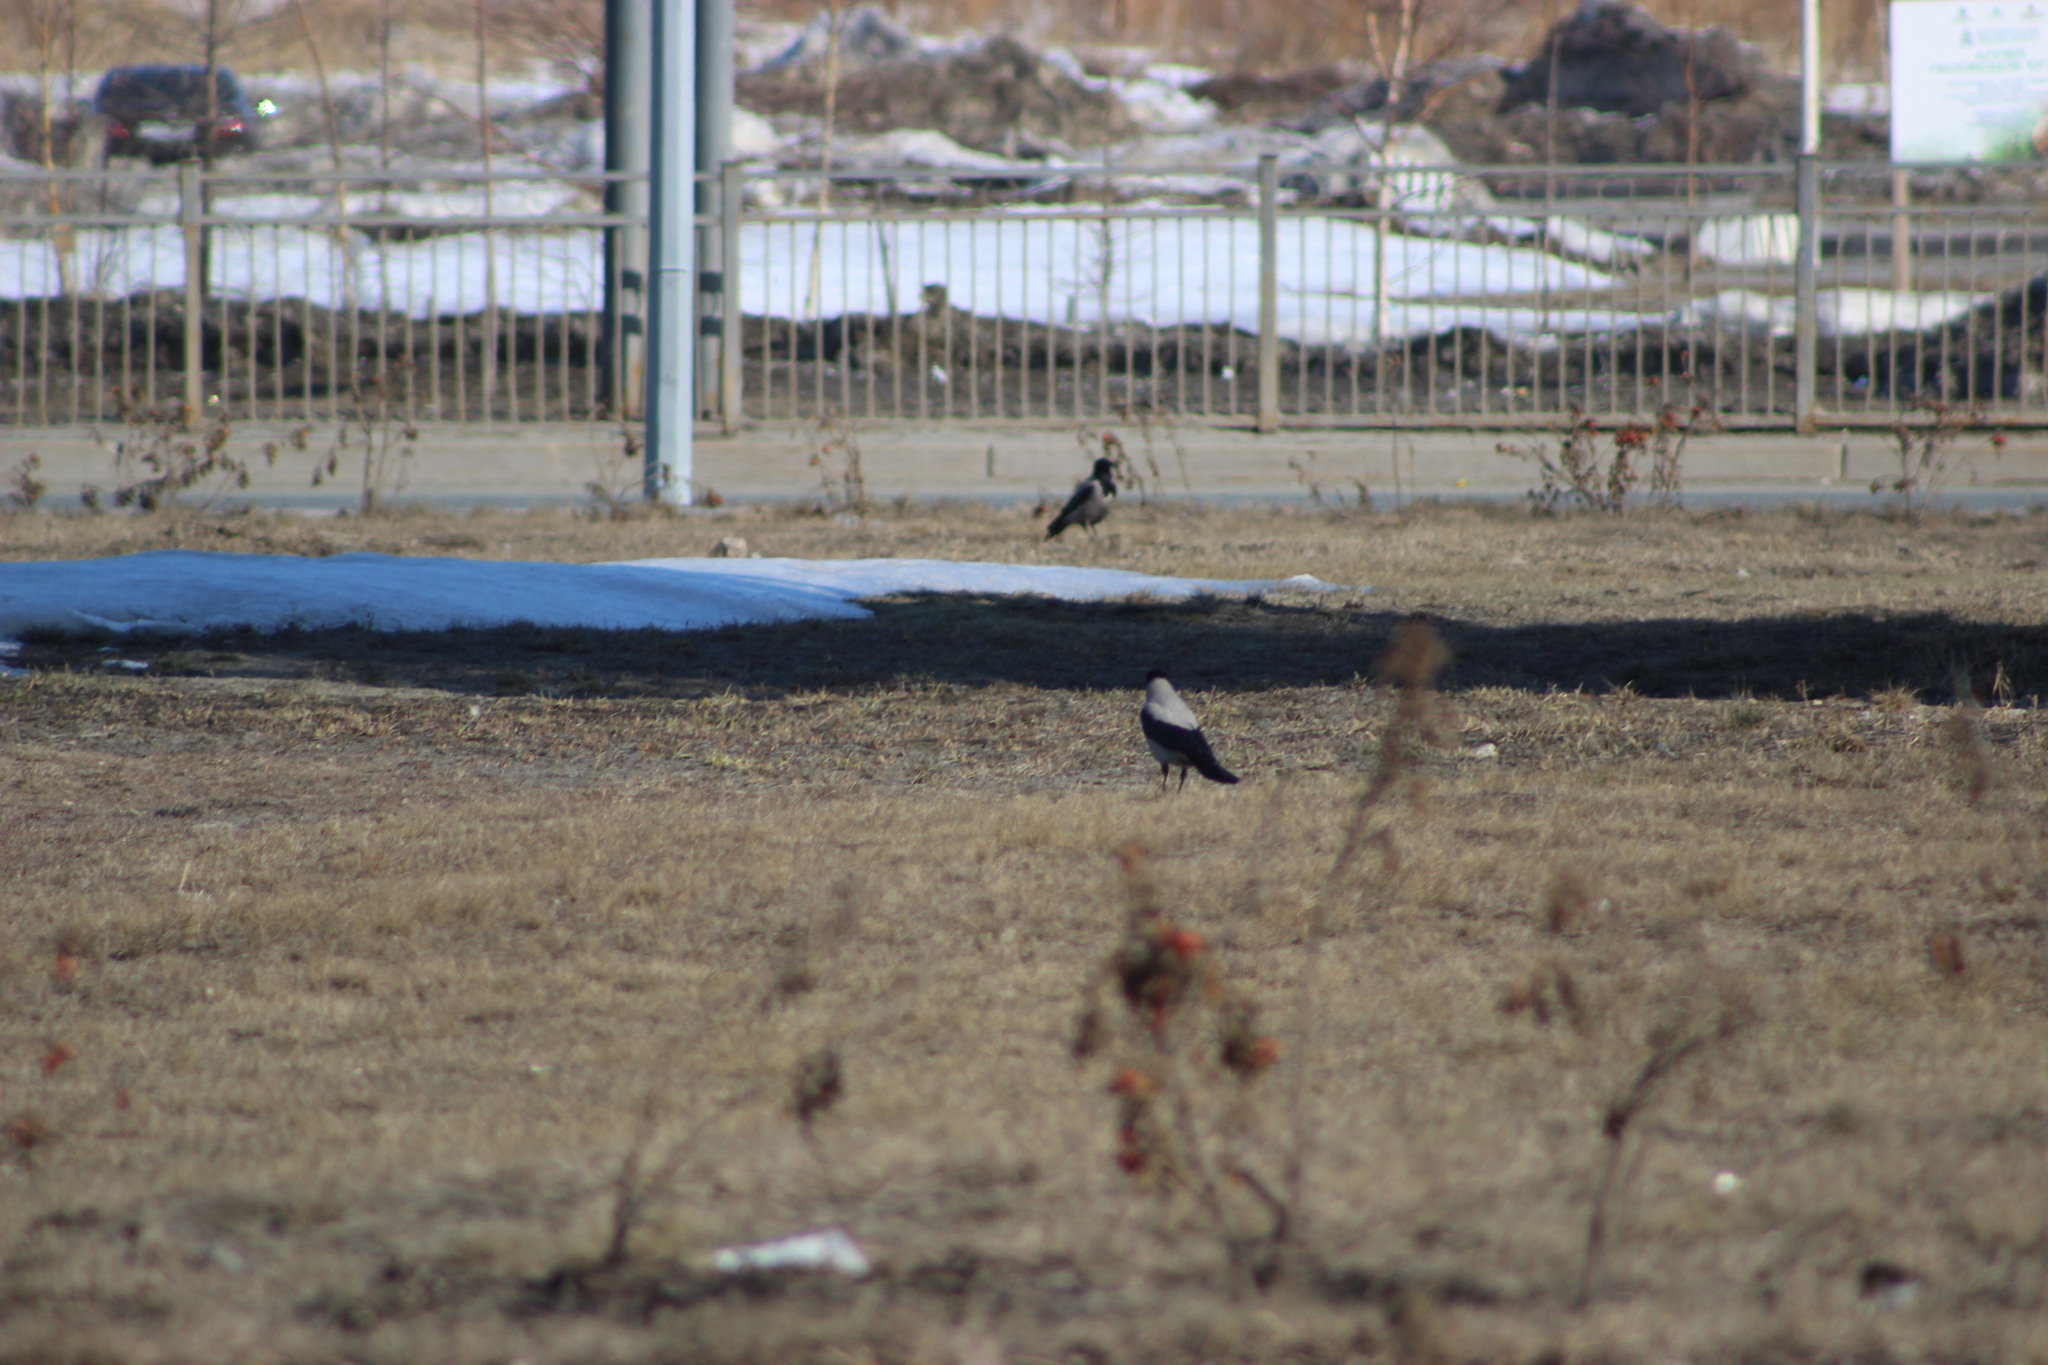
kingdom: Animalia
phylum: Chordata
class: Aves
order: Passeriformes
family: Corvidae
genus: Corvus
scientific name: Corvus cornix
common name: Hooded crow
